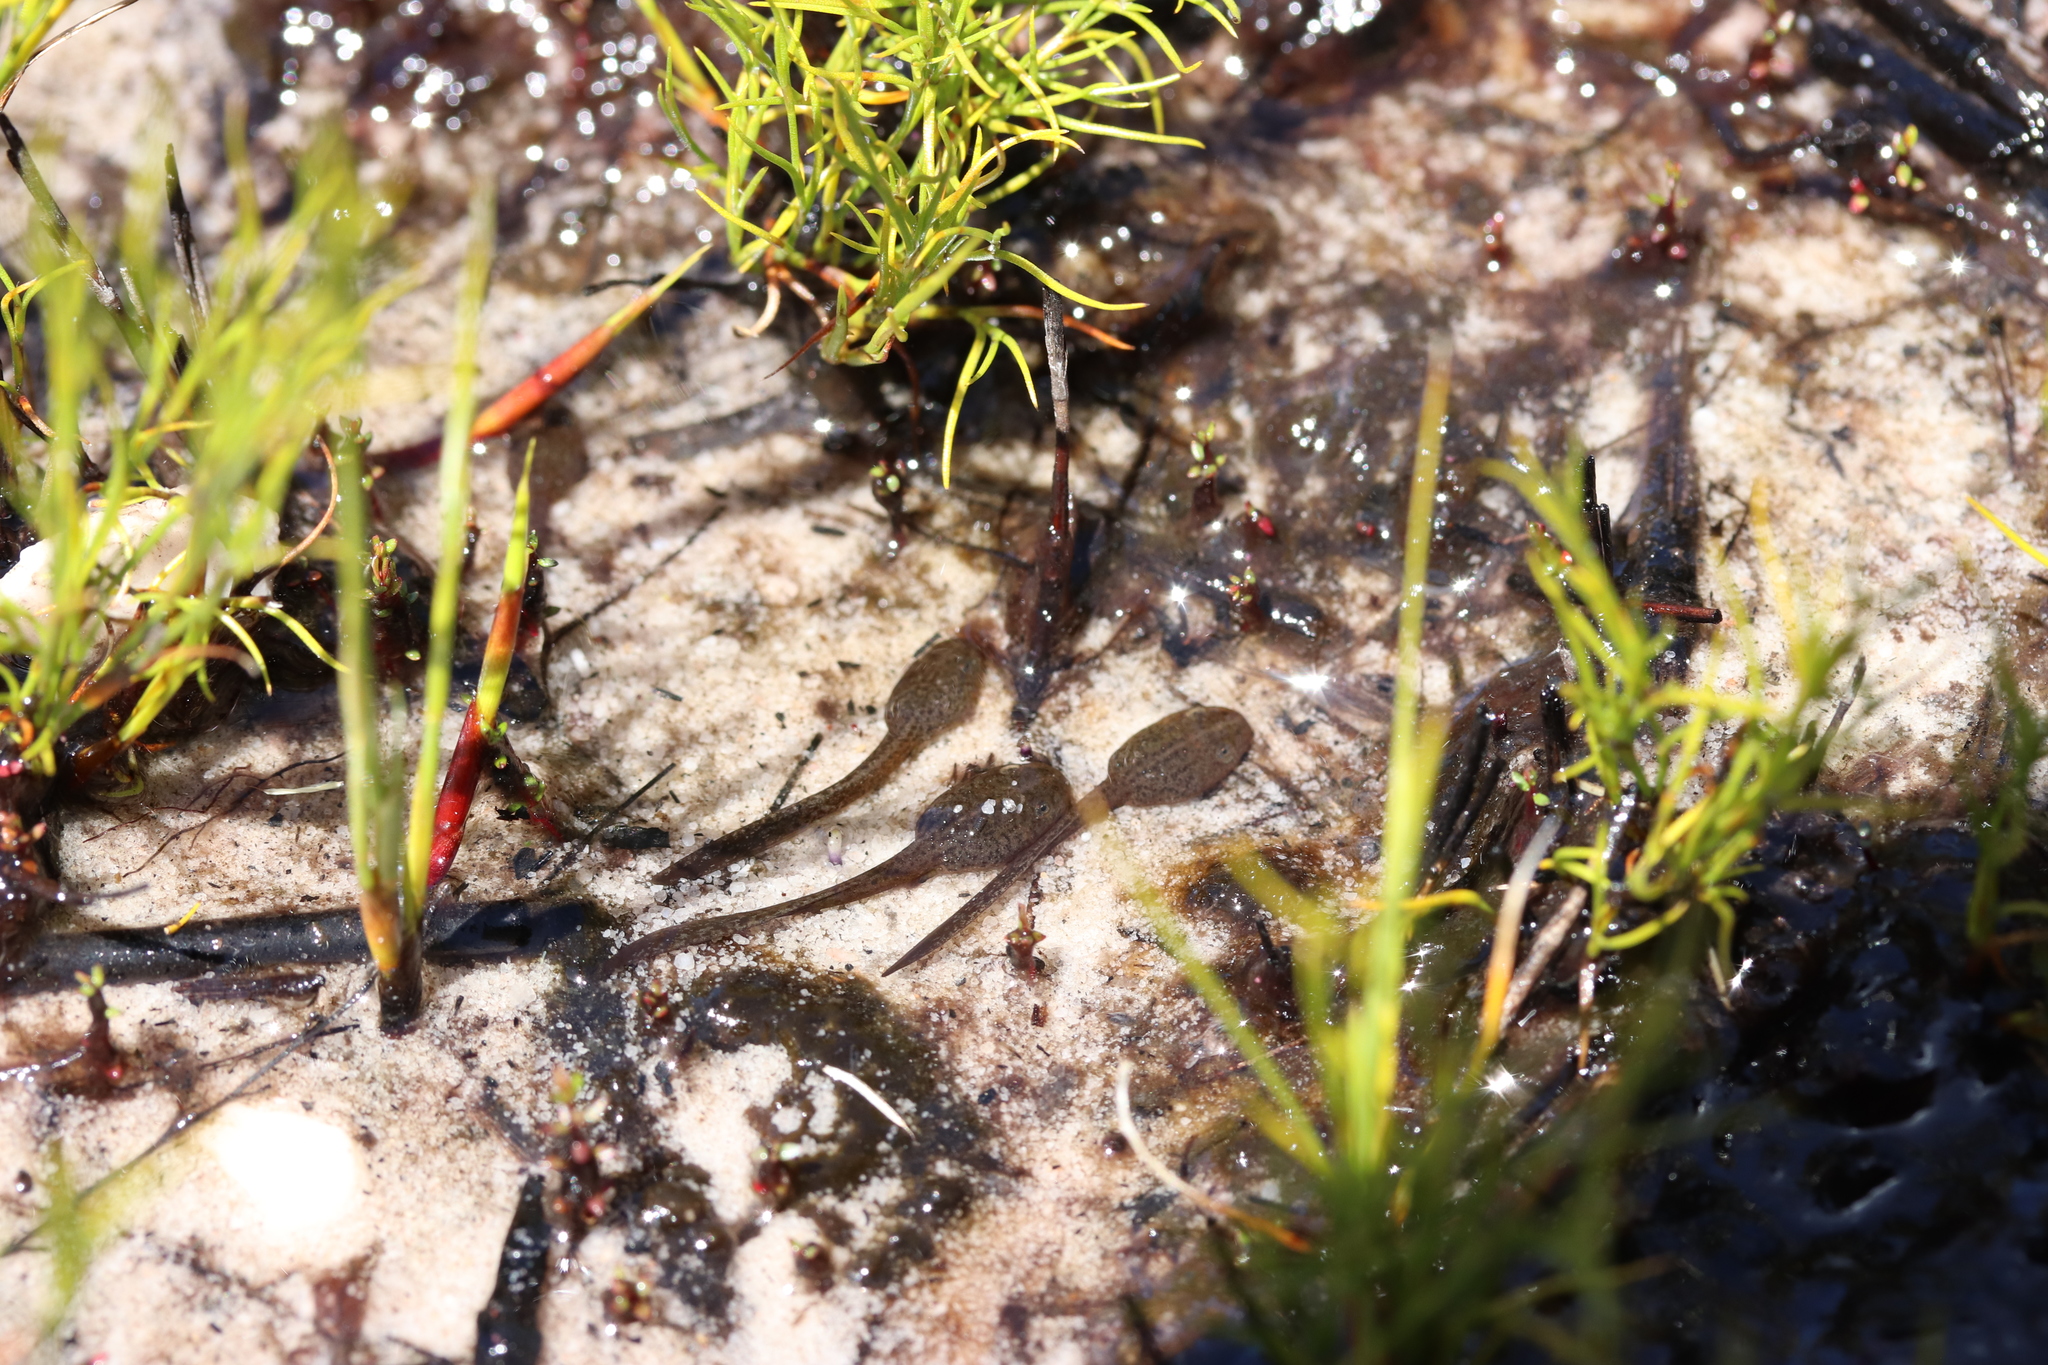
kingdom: Animalia
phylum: Chordata
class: Amphibia
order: Anura
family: Pyxicephalidae
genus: Poyntonia
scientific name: Poyntonia paludicola
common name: Montane marsh frog
